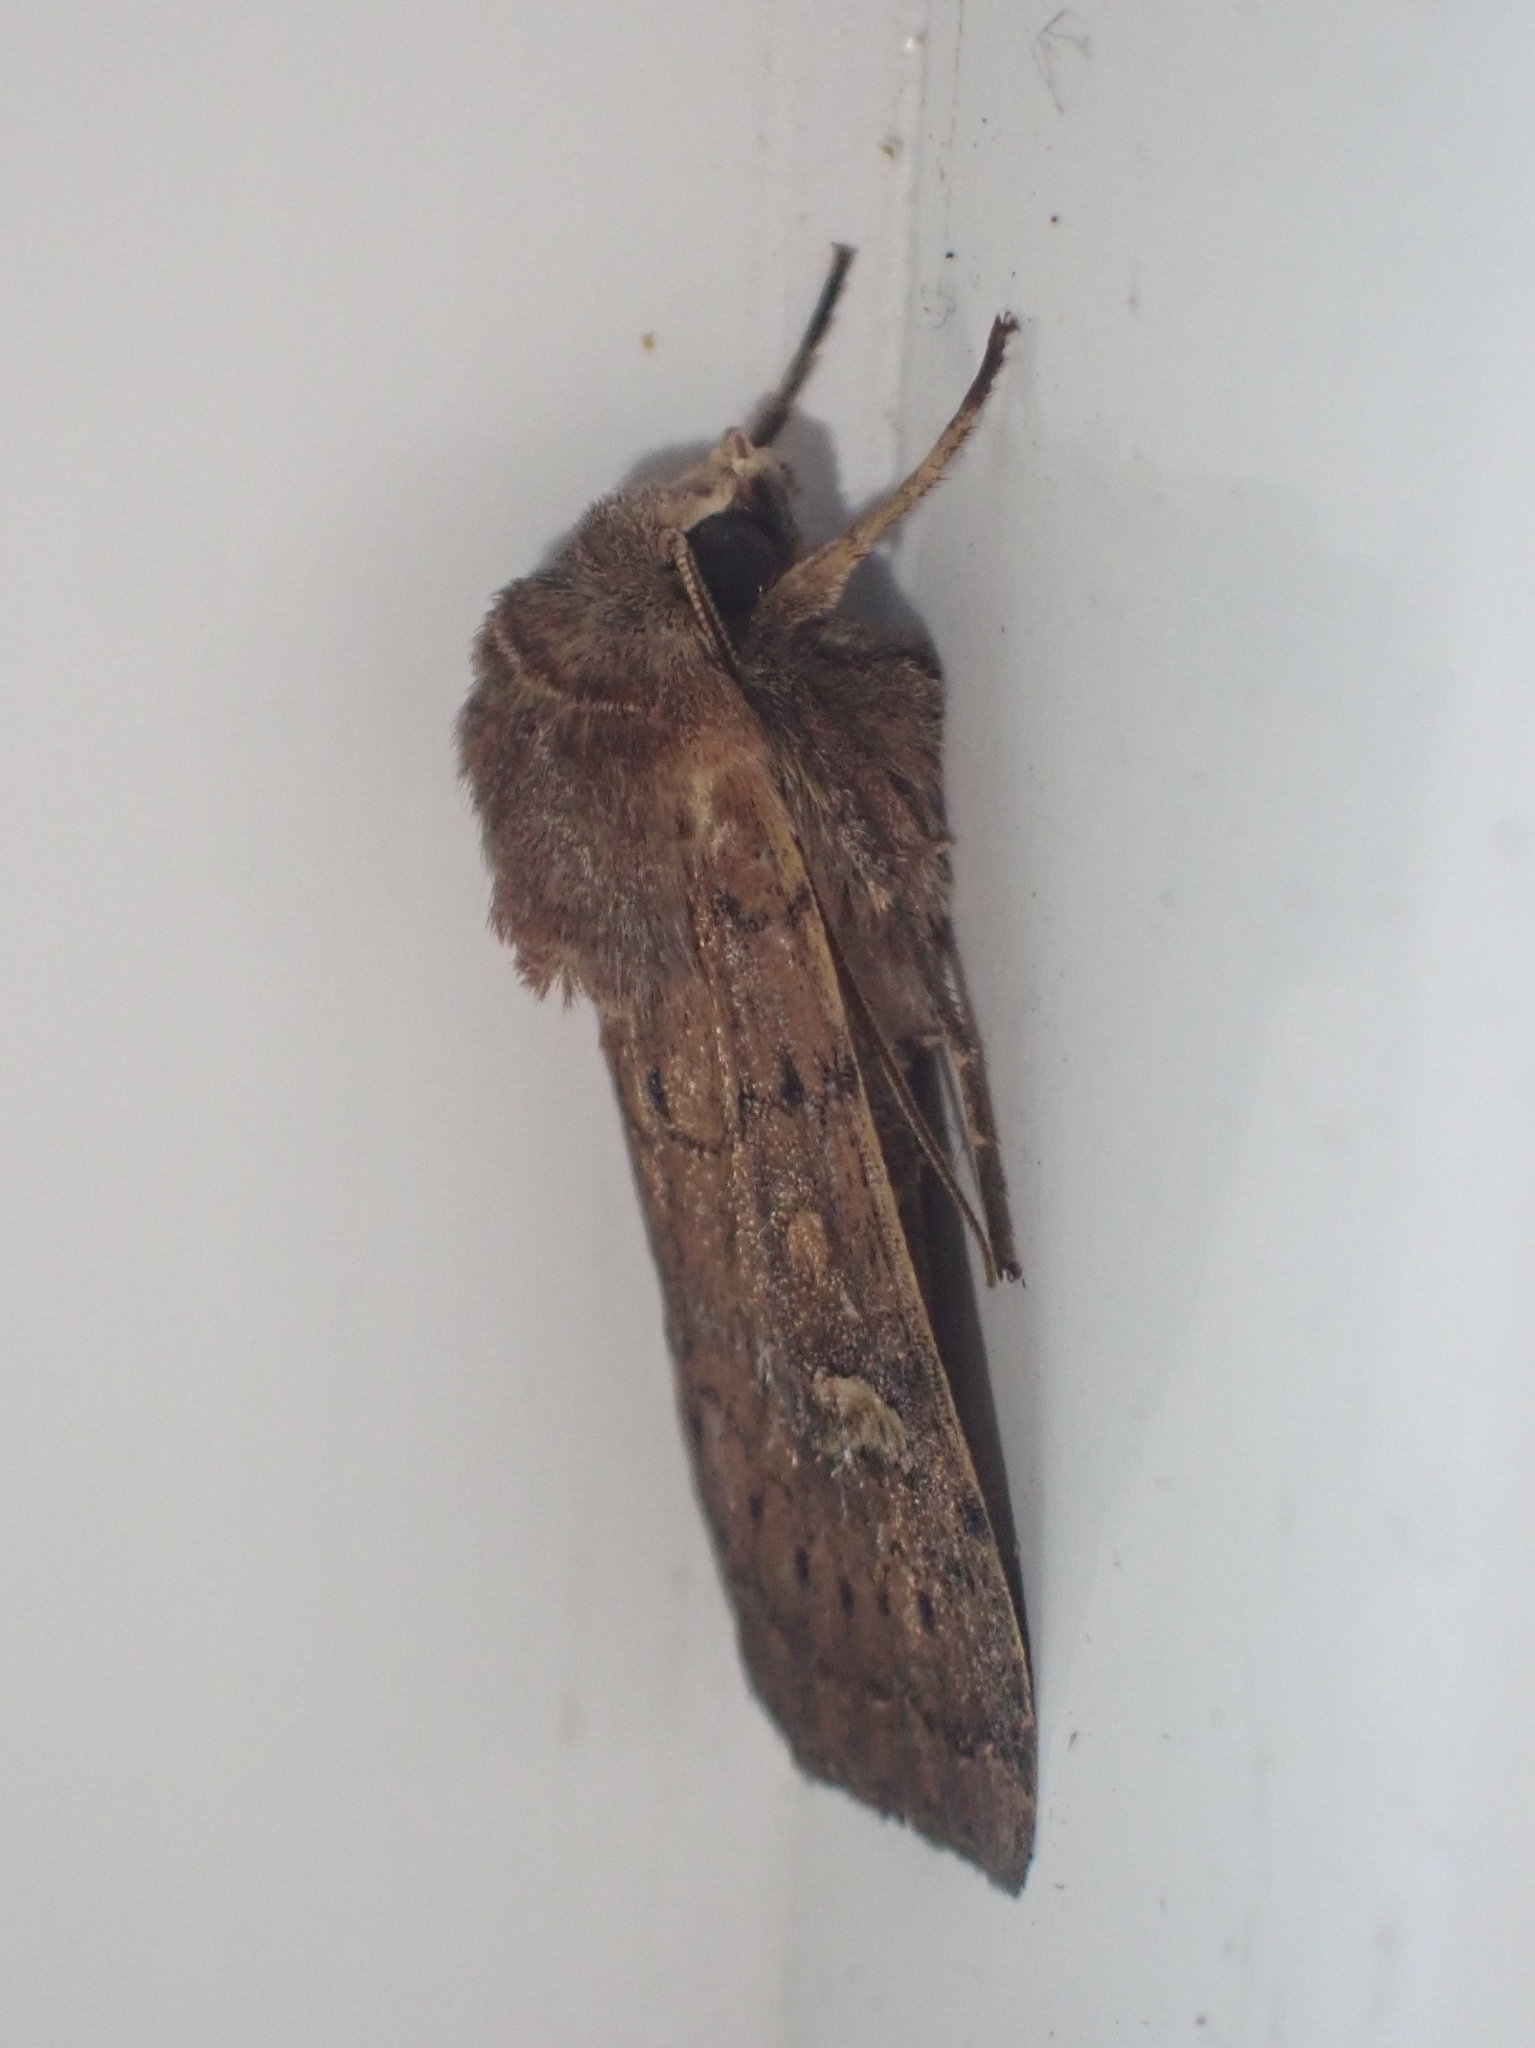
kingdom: Animalia
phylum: Arthropoda
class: Insecta
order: Lepidoptera
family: Noctuidae
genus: Xestia
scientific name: Xestia xanthographa
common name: Square-spot rustic
